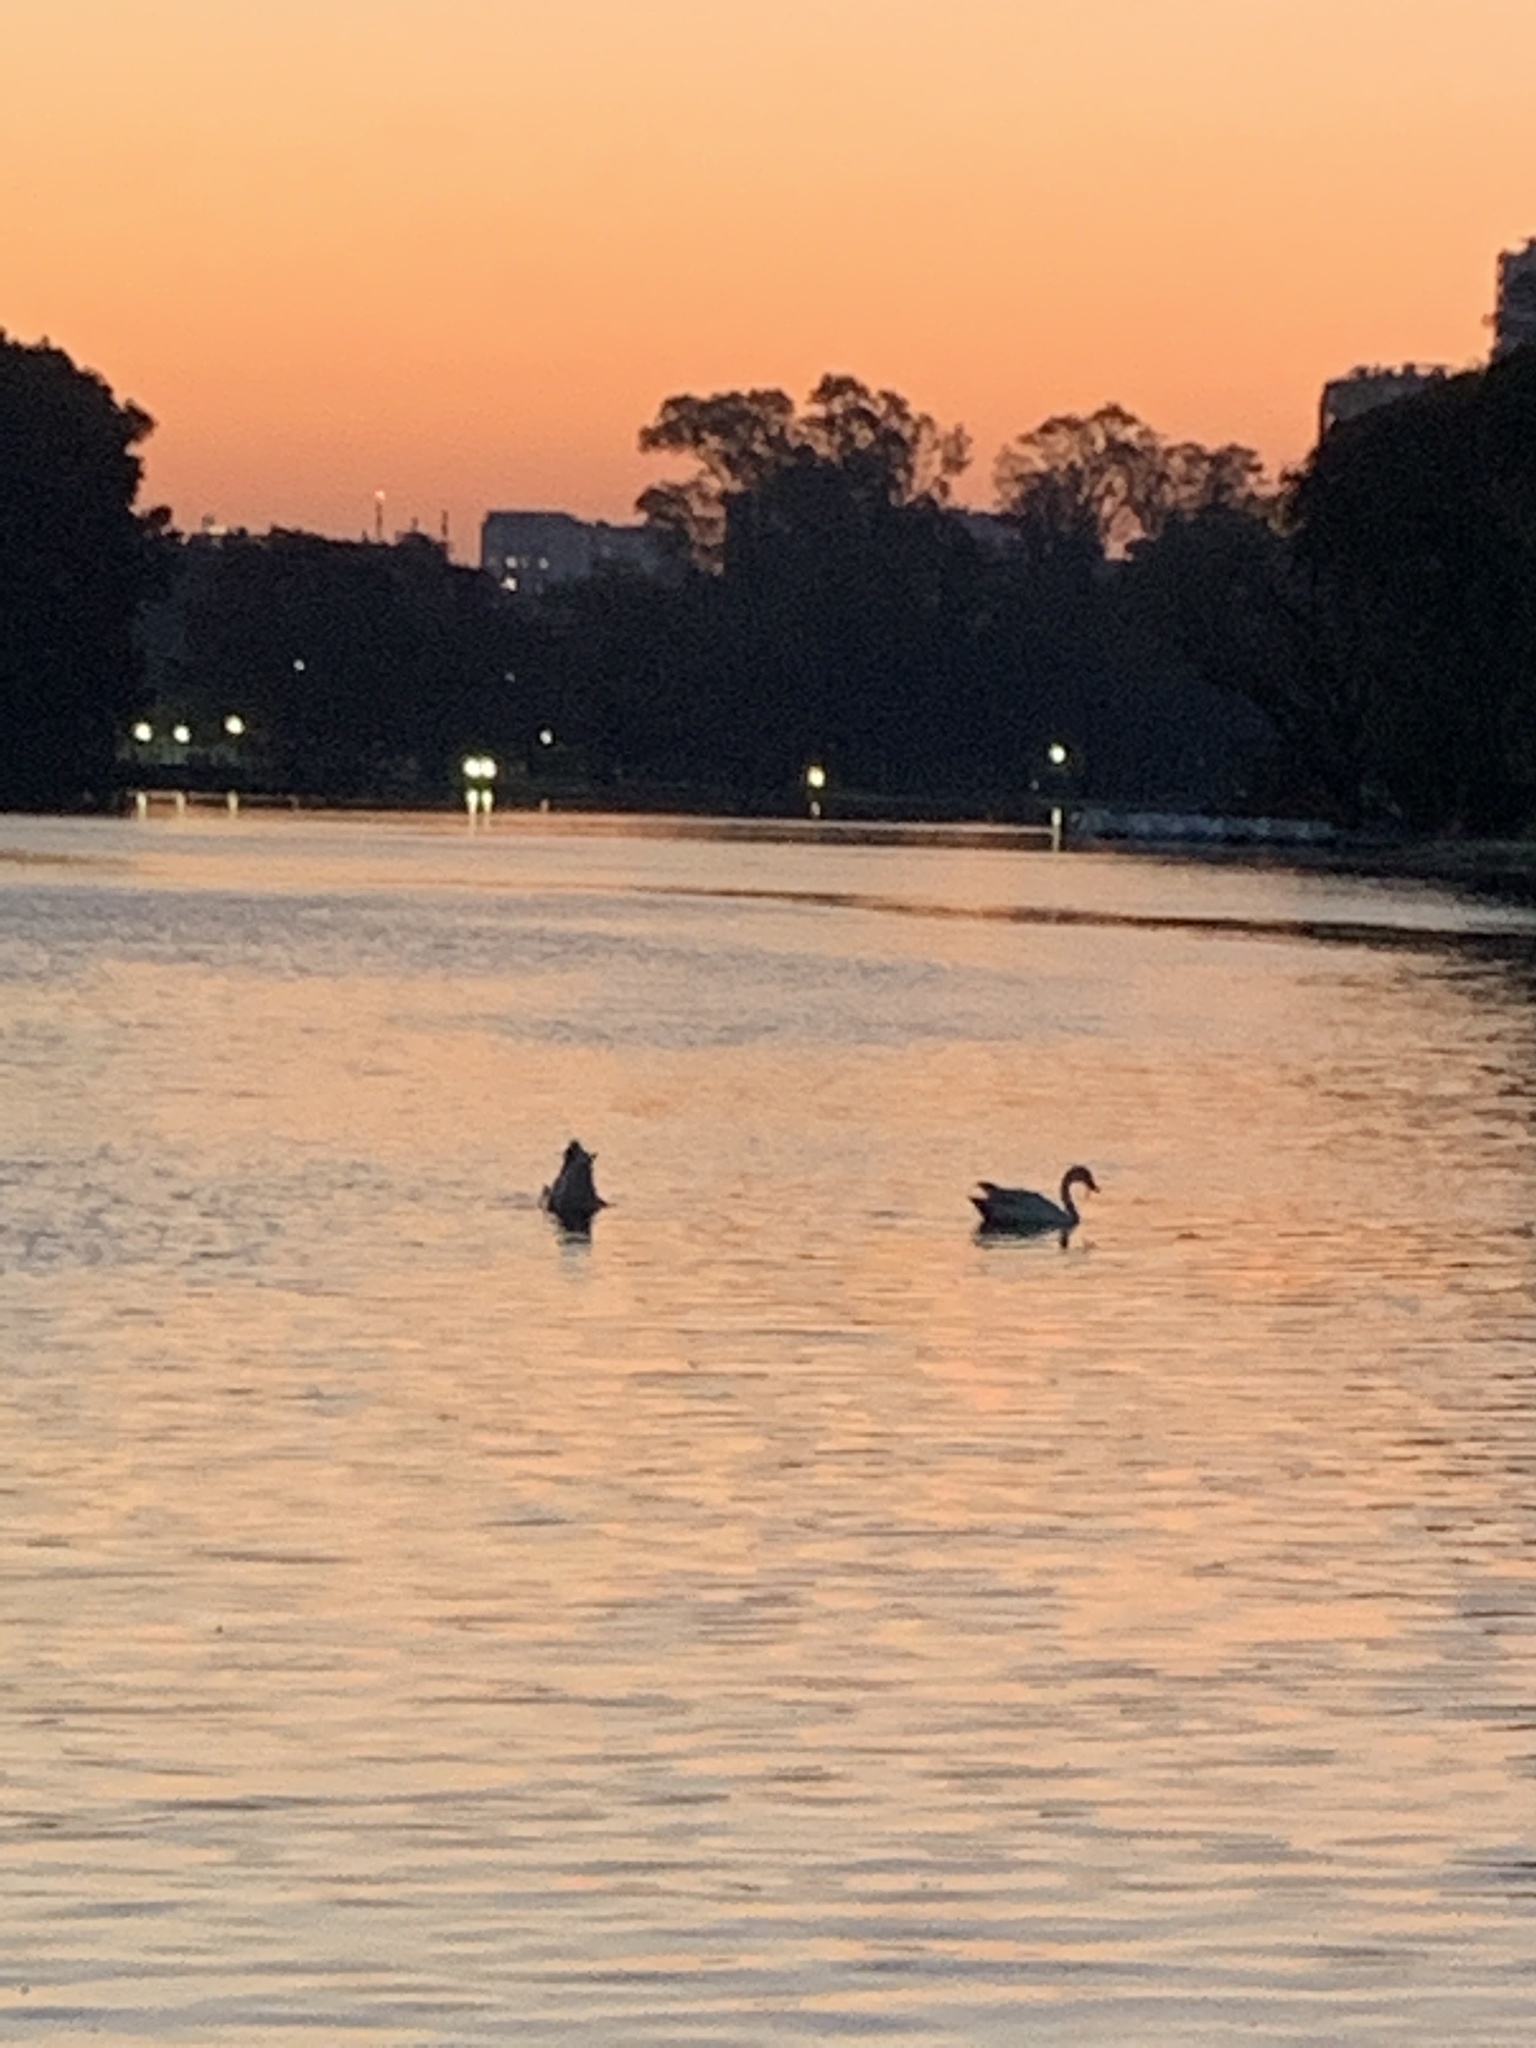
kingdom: Animalia
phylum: Chordata
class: Aves
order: Anseriformes
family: Anatidae
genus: Coscoroba
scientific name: Coscoroba coscoroba
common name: Coscoroba swan
